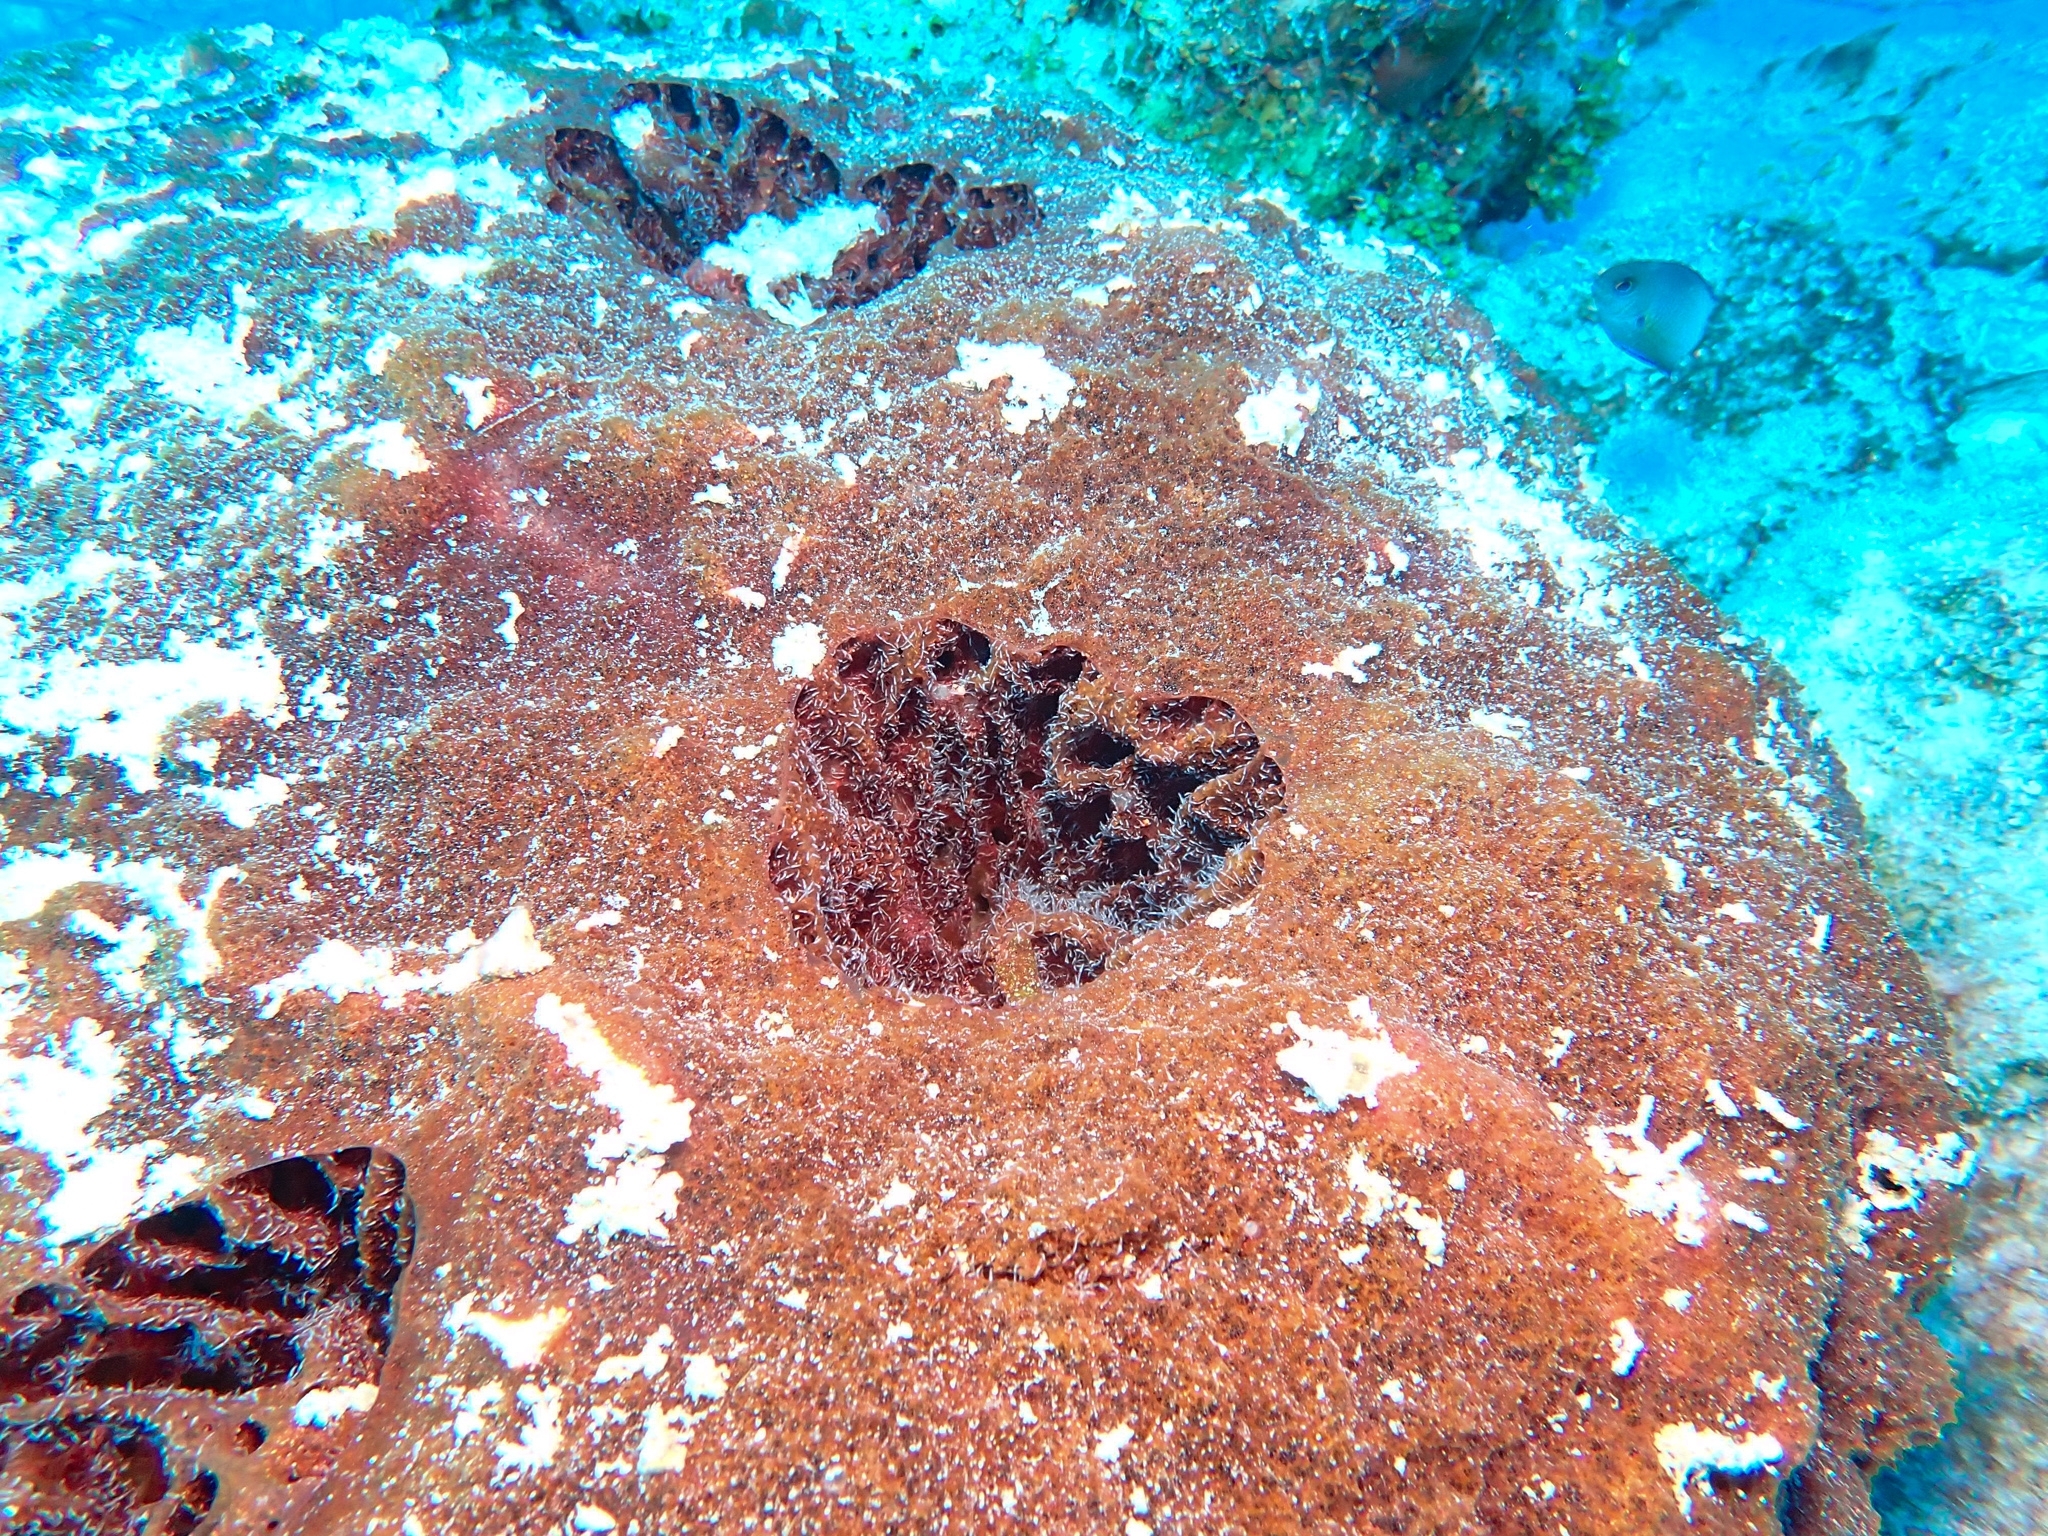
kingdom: Animalia
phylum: Porifera
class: Demospongiae
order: Biemnida
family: Biemnidae
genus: Neofibularia
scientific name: Neofibularia nolitangere
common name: Do-not-touch-me sponge
